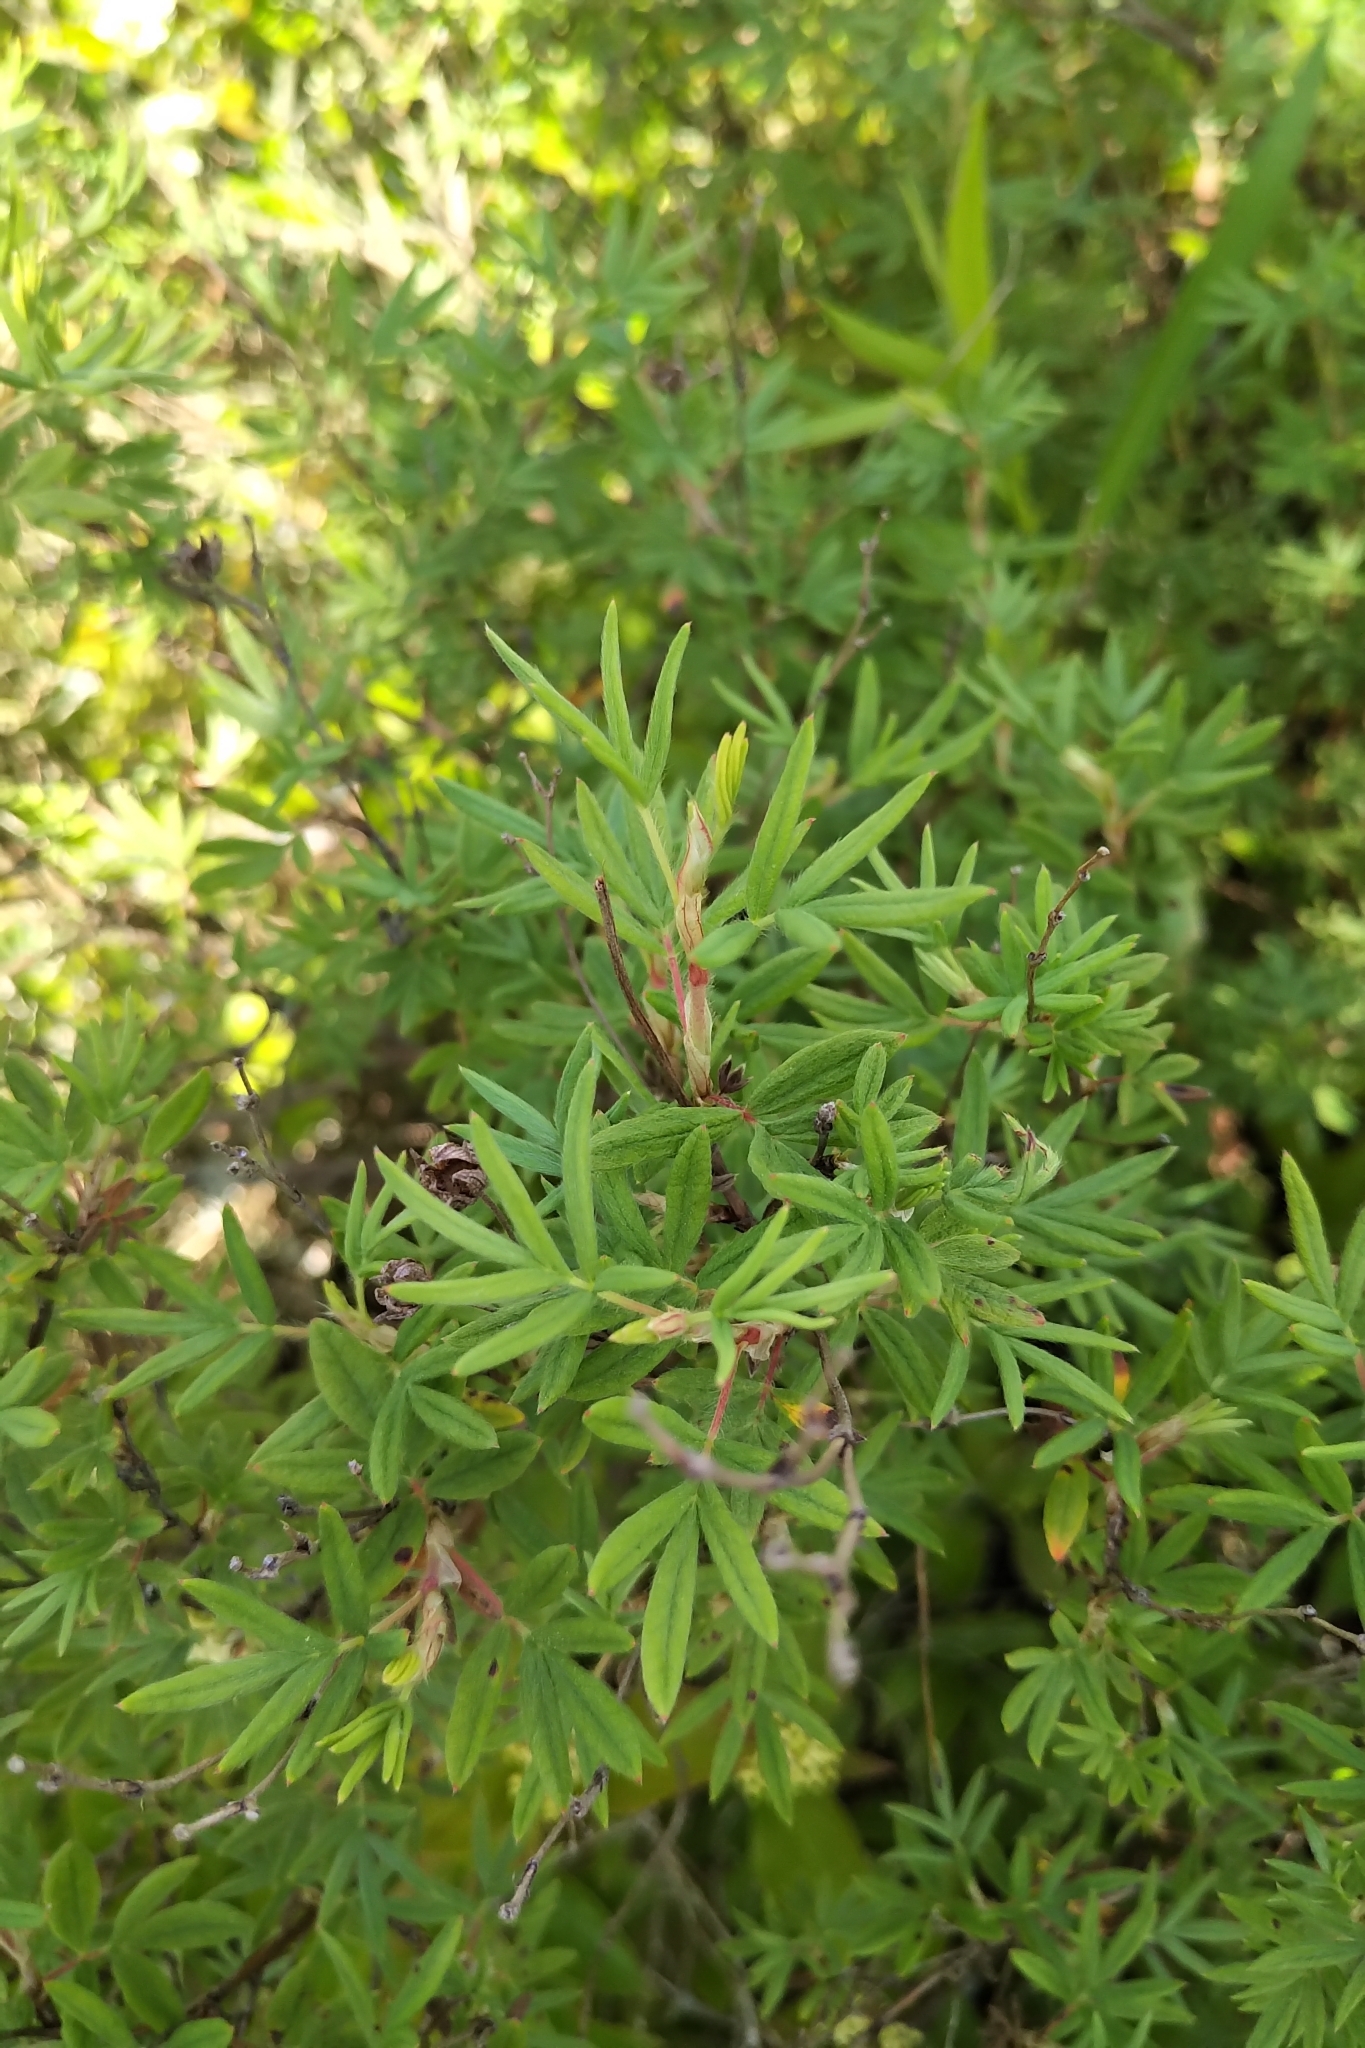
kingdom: Plantae
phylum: Tracheophyta
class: Magnoliopsida
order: Rosales
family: Rosaceae
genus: Dasiphora
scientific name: Dasiphora fruticosa
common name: Shrubby cinquefoil
